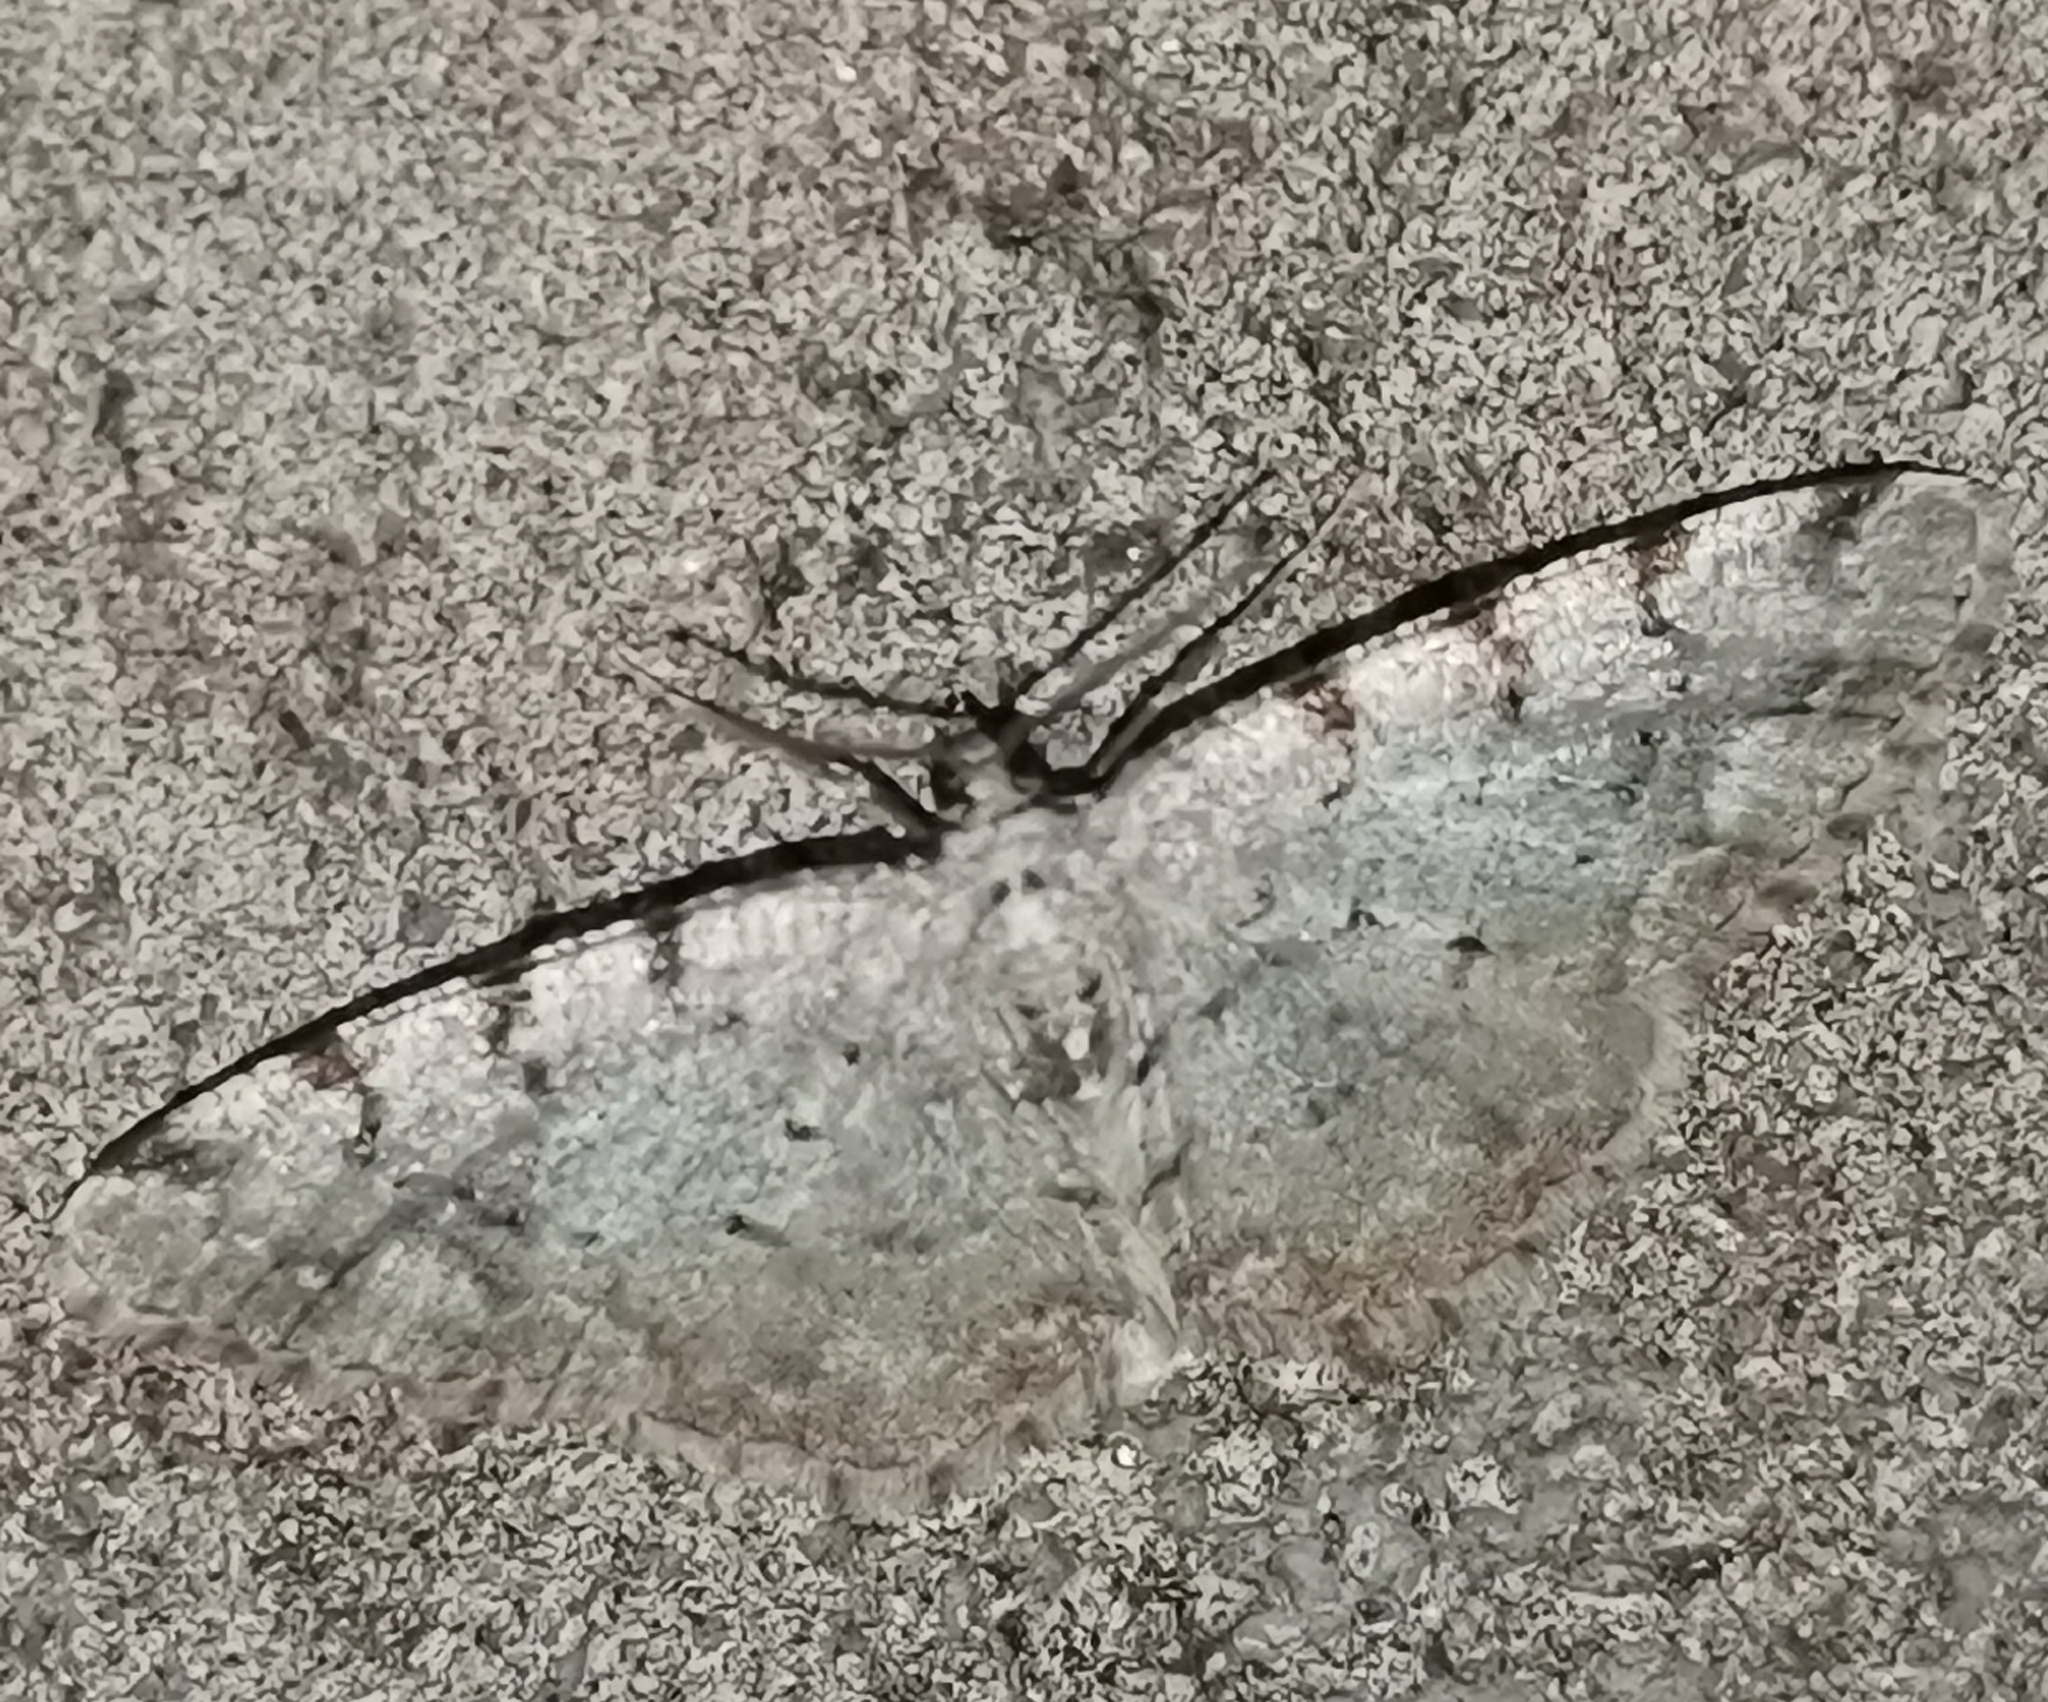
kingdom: Animalia
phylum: Arthropoda
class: Insecta
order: Lepidoptera
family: Geometridae
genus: Aethalura
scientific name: Aethalura punctulata
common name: Grey birch
